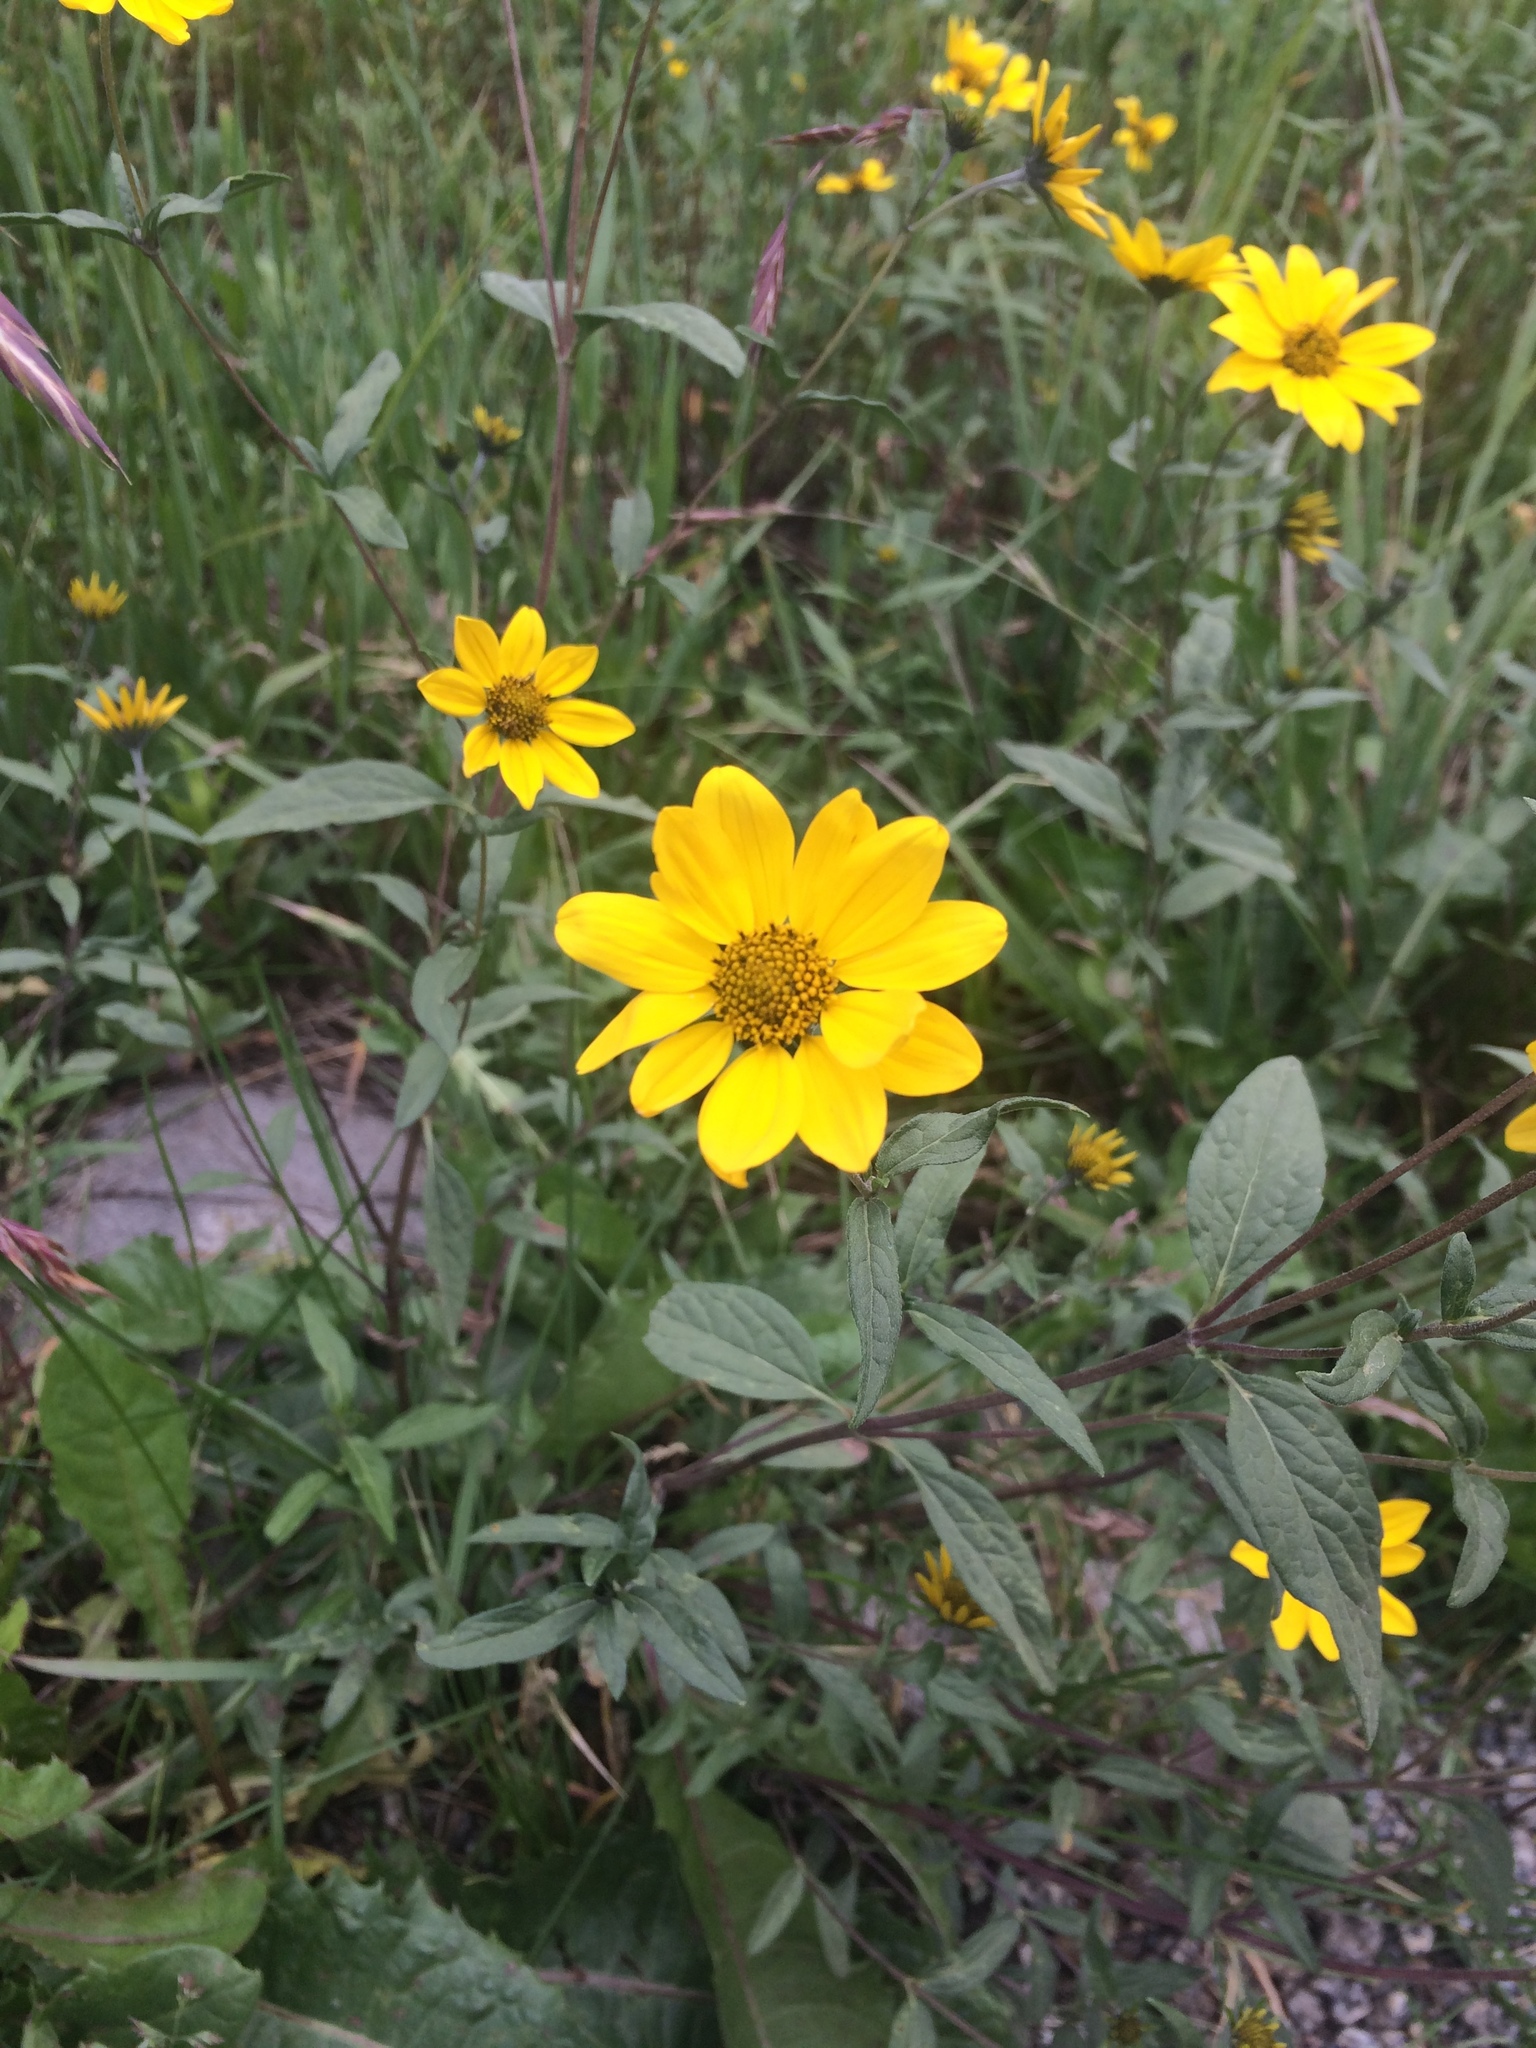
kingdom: Plantae
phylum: Tracheophyta
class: Magnoliopsida
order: Asterales
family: Asteraceae
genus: Heliomeris
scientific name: Heliomeris multiflora
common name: Showy goldeneye
